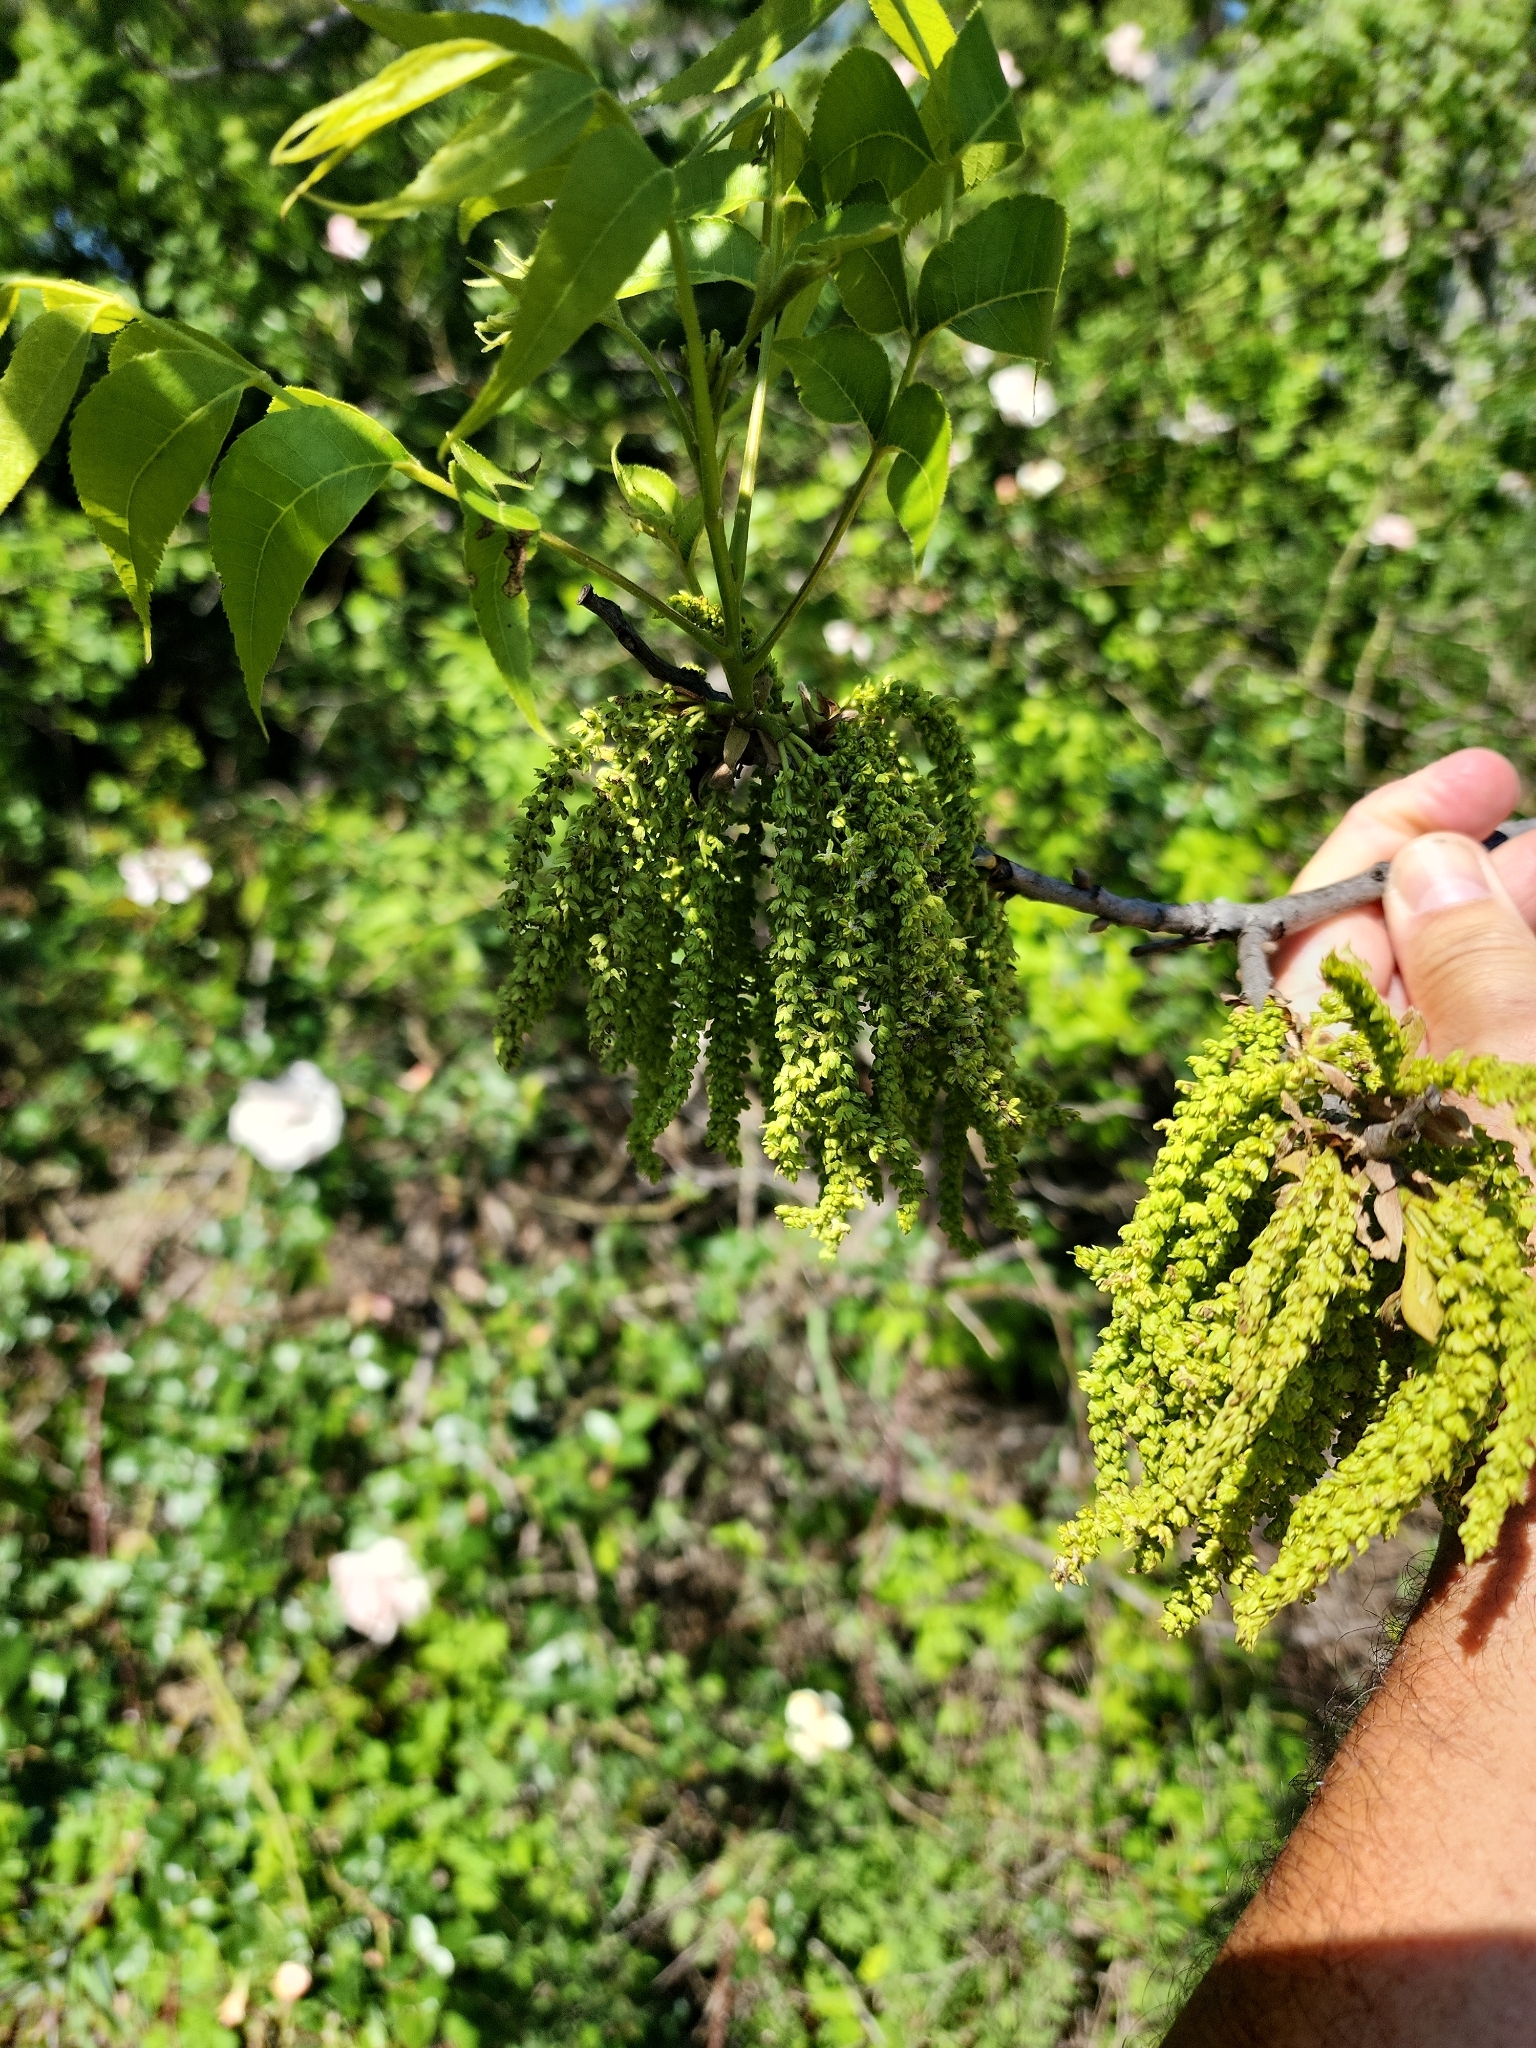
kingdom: Plantae
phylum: Tracheophyta
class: Magnoliopsida
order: Fagales
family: Juglandaceae
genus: Carya
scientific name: Carya illinoinensis
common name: Pecan
